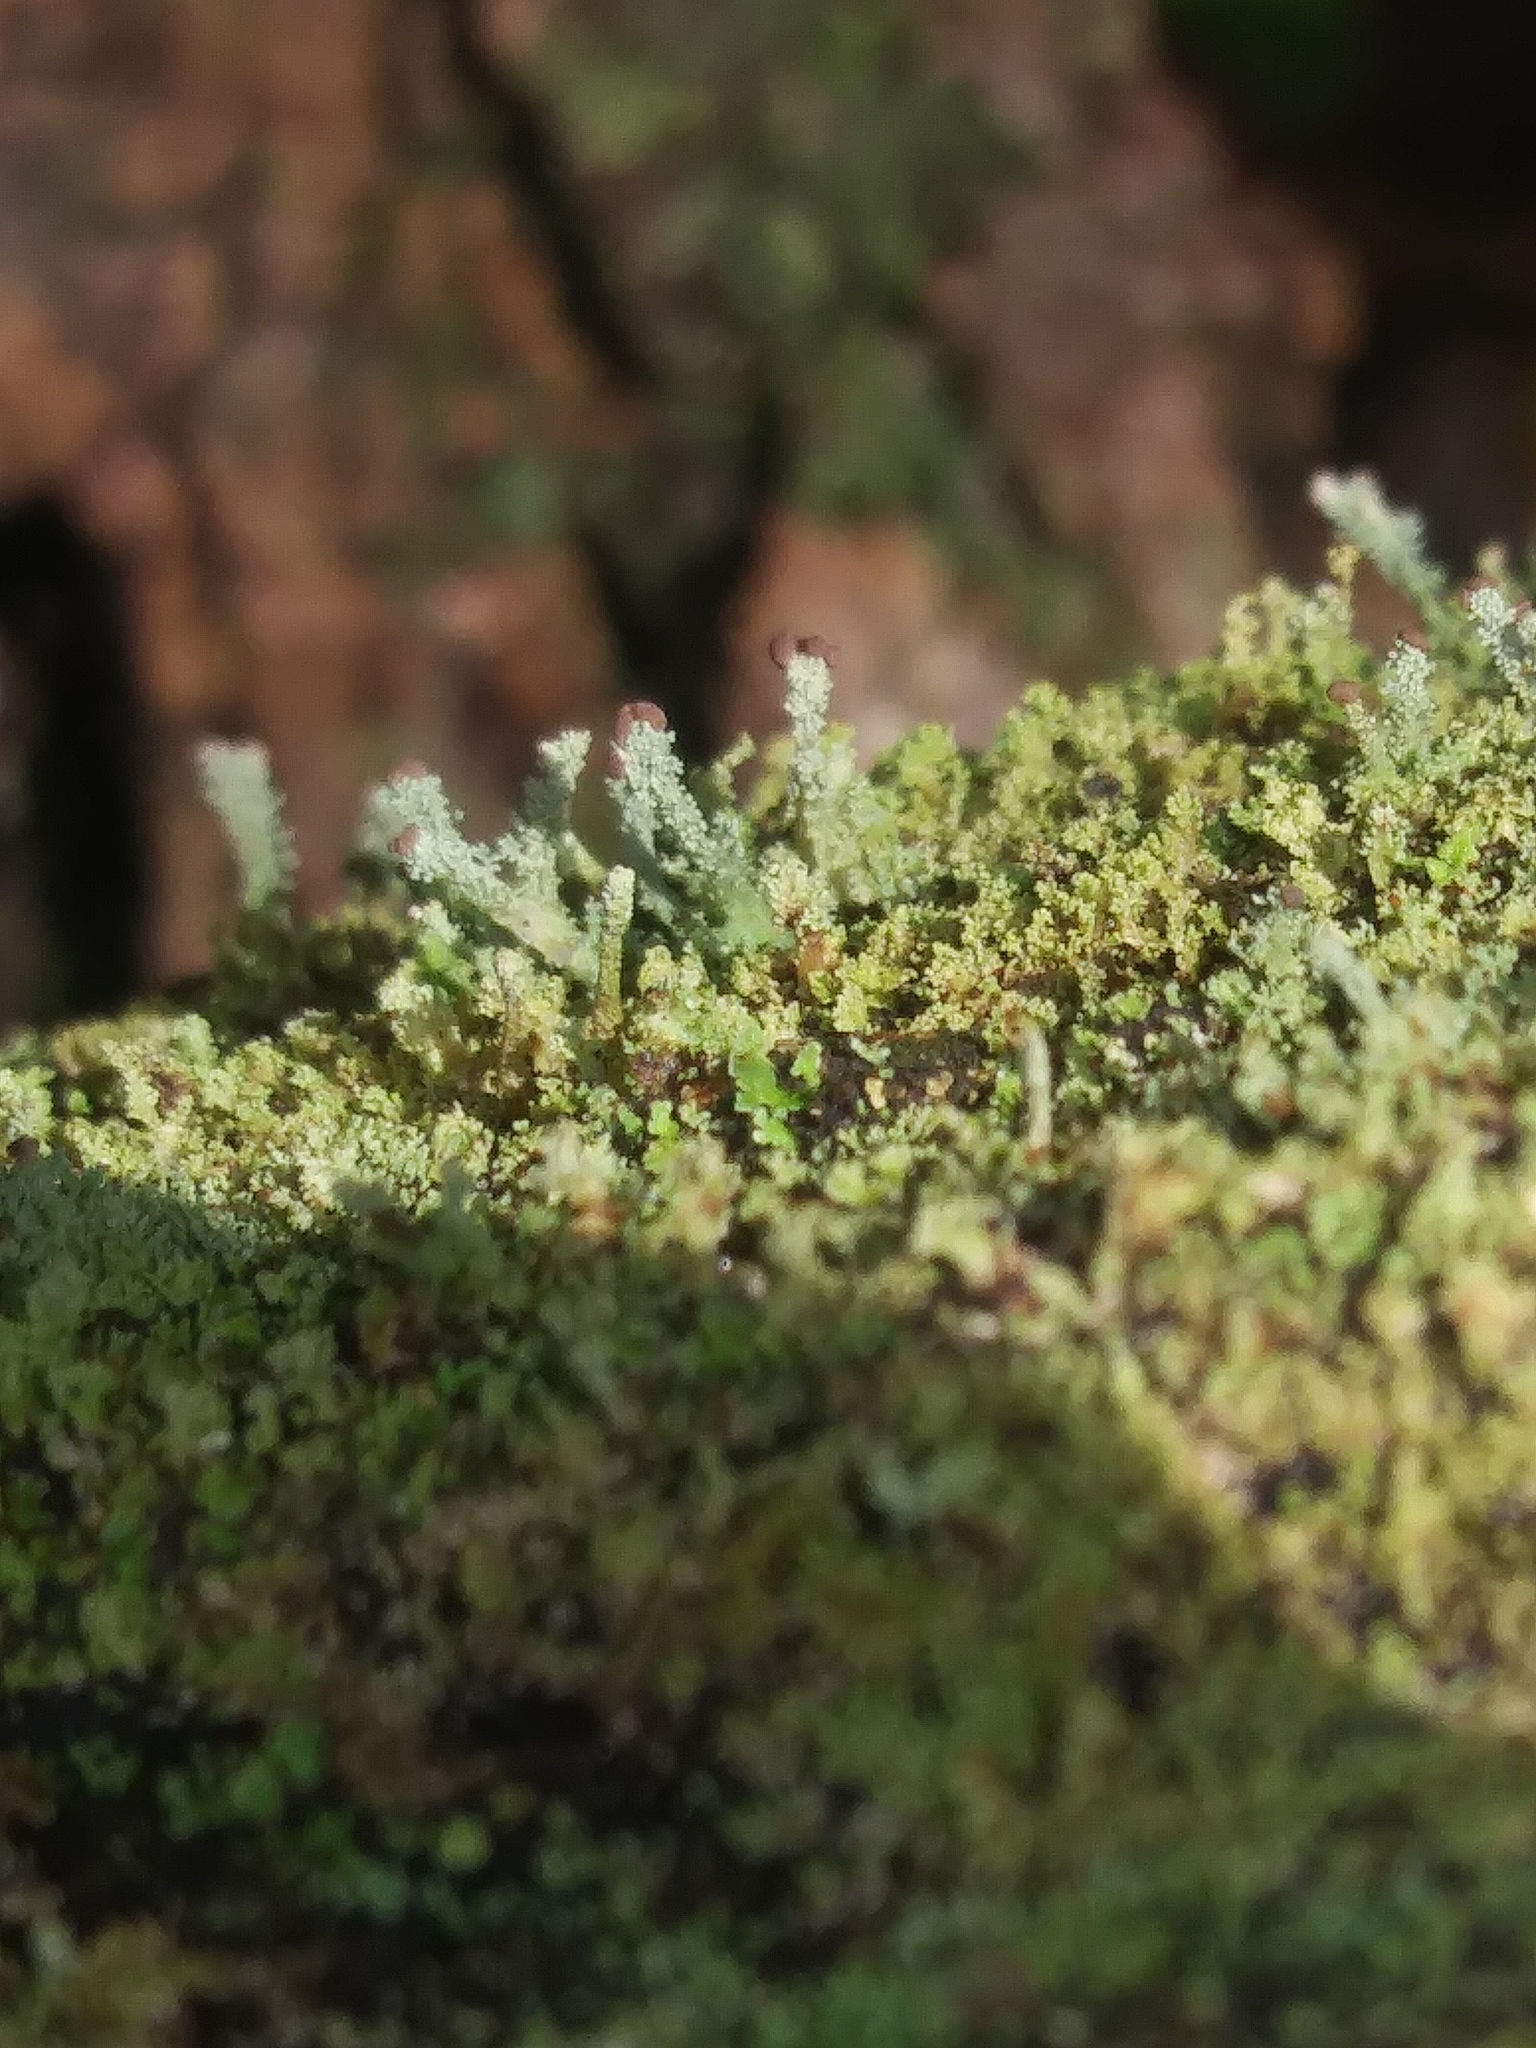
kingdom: Fungi
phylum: Ascomycota
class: Lecanoromycetes
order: Lecanorales
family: Cladoniaceae
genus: Cladonia
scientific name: Cladonia parasitica
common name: Fence-rail clad lichen
